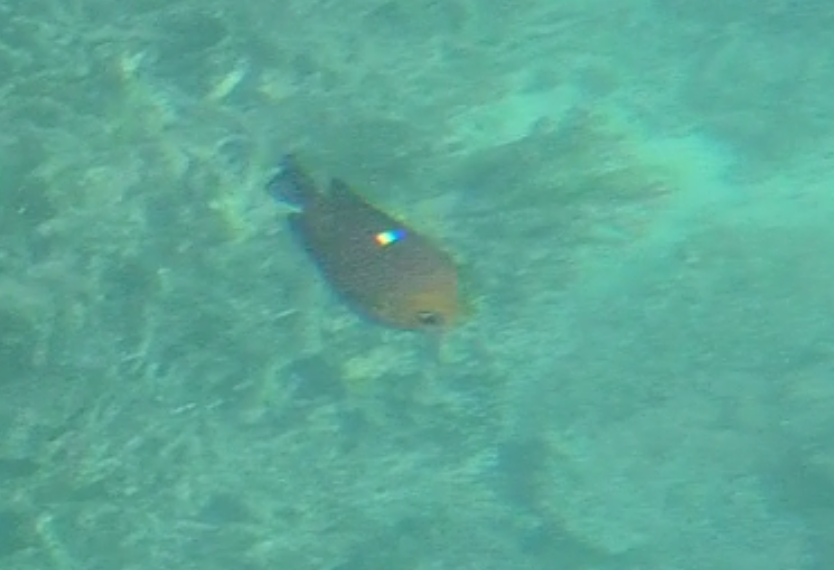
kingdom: Animalia
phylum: Chordata
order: Perciformes
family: Pomacentridae
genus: Dascyllus
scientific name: Dascyllus trimaculatus
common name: Threespot dascyllus
